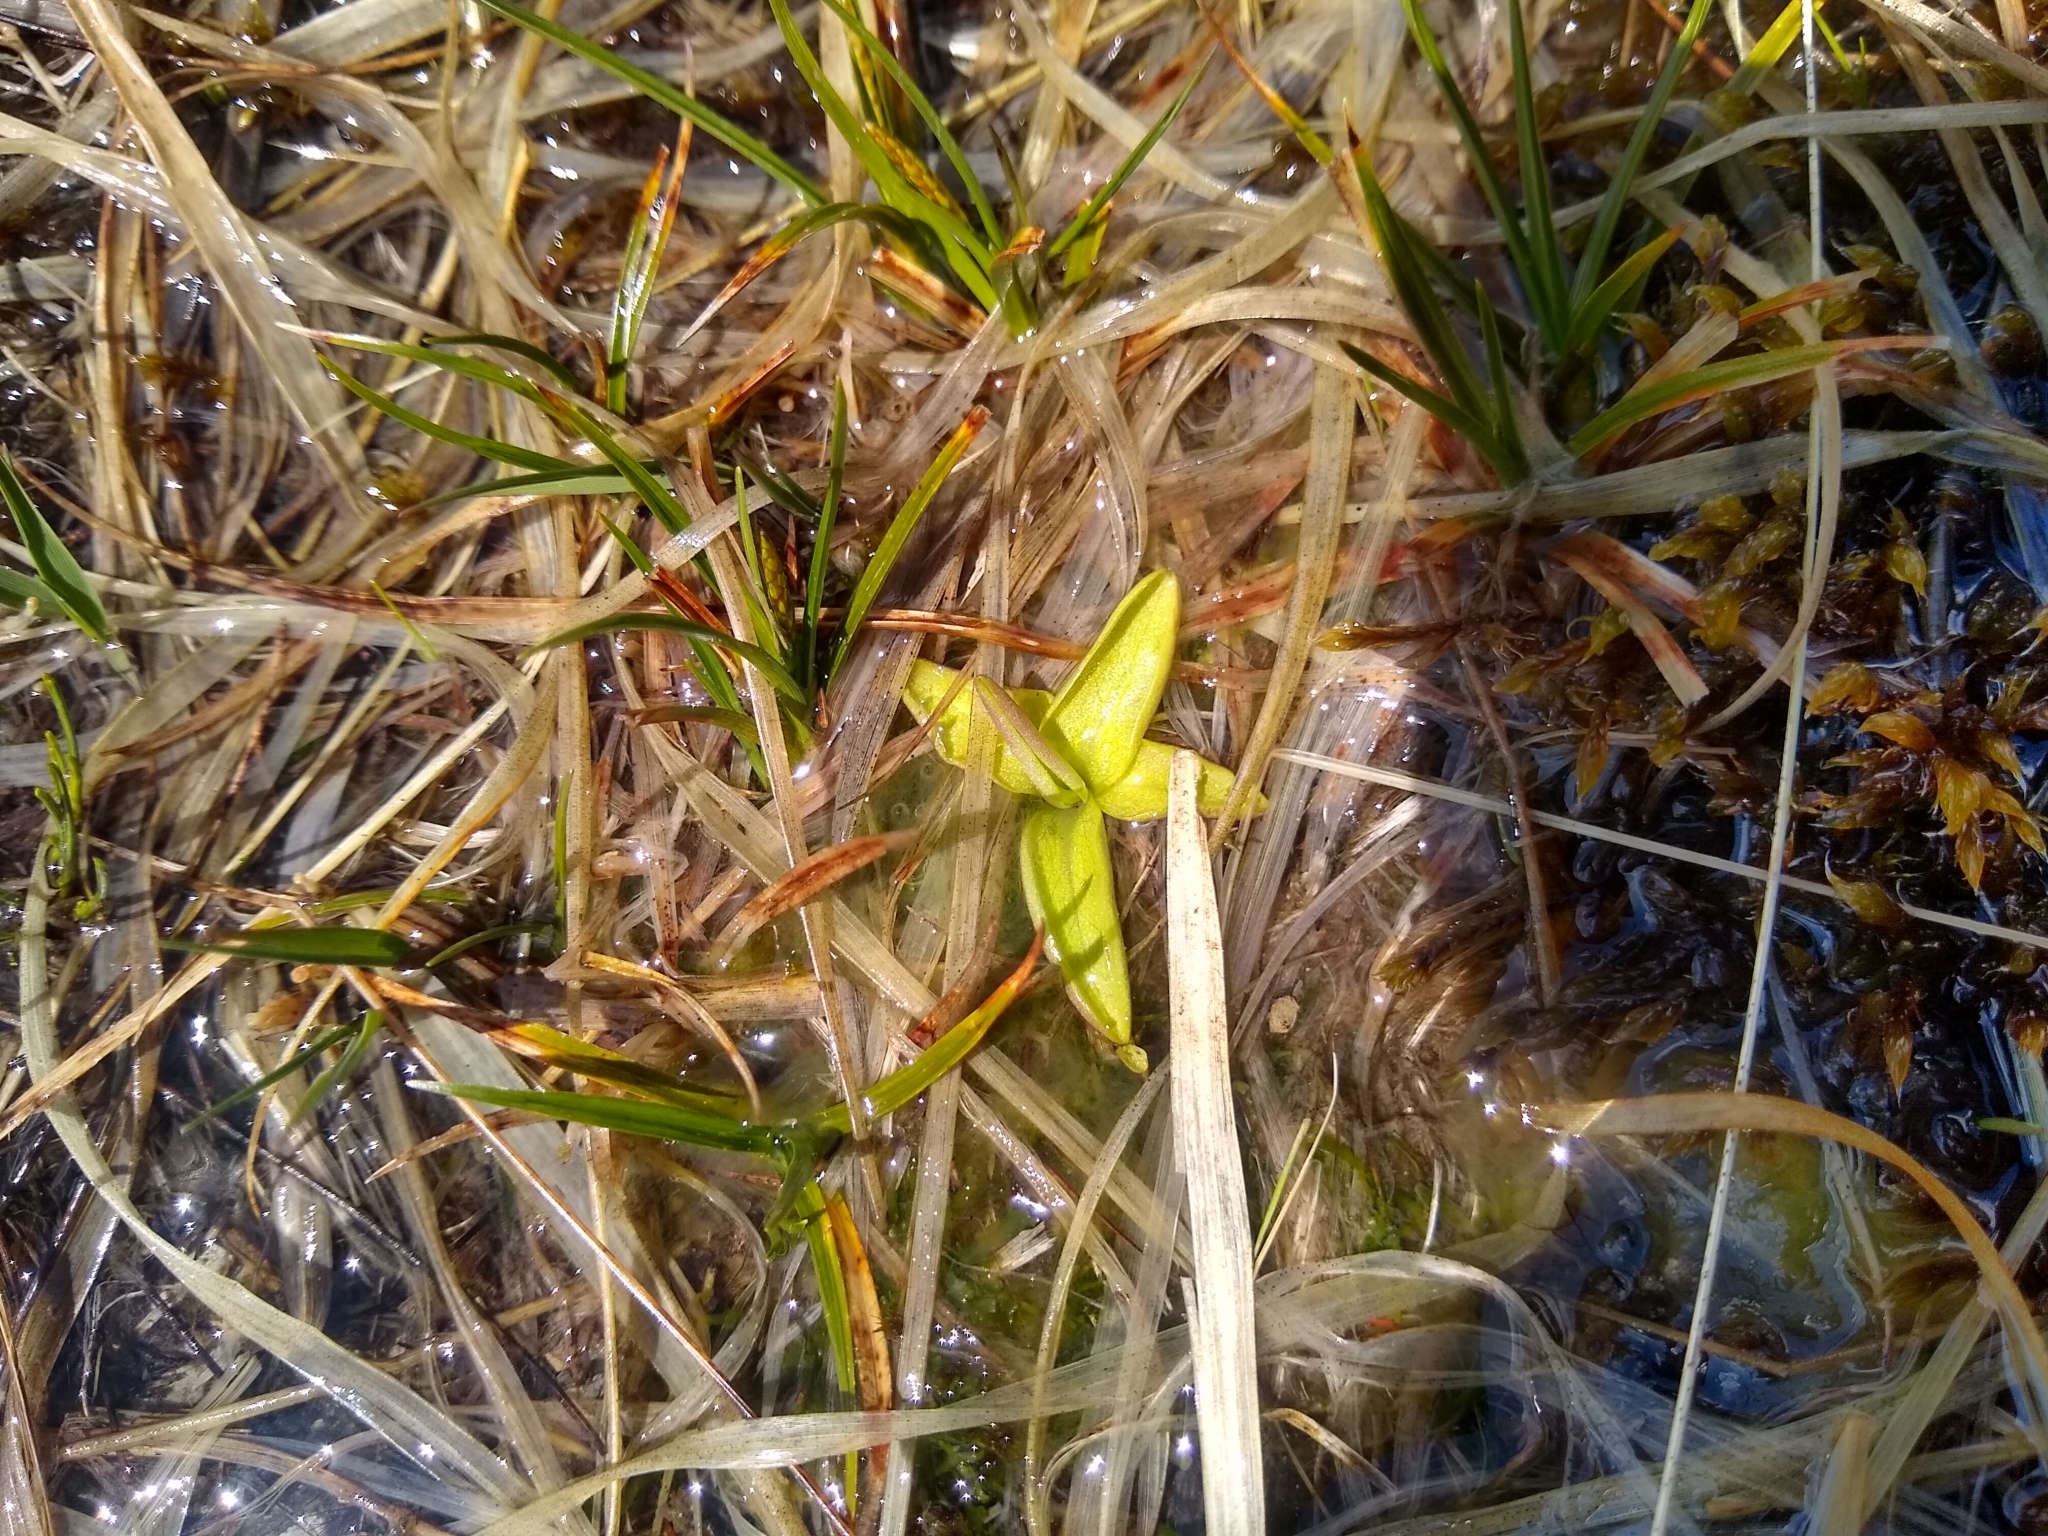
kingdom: Plantae
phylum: Tracheophyta
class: Magnoliopsida
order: Lamiales
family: Lentibulariaceae
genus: Pinguicula
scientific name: Pinguicula vulgaris
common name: Common butterwort
